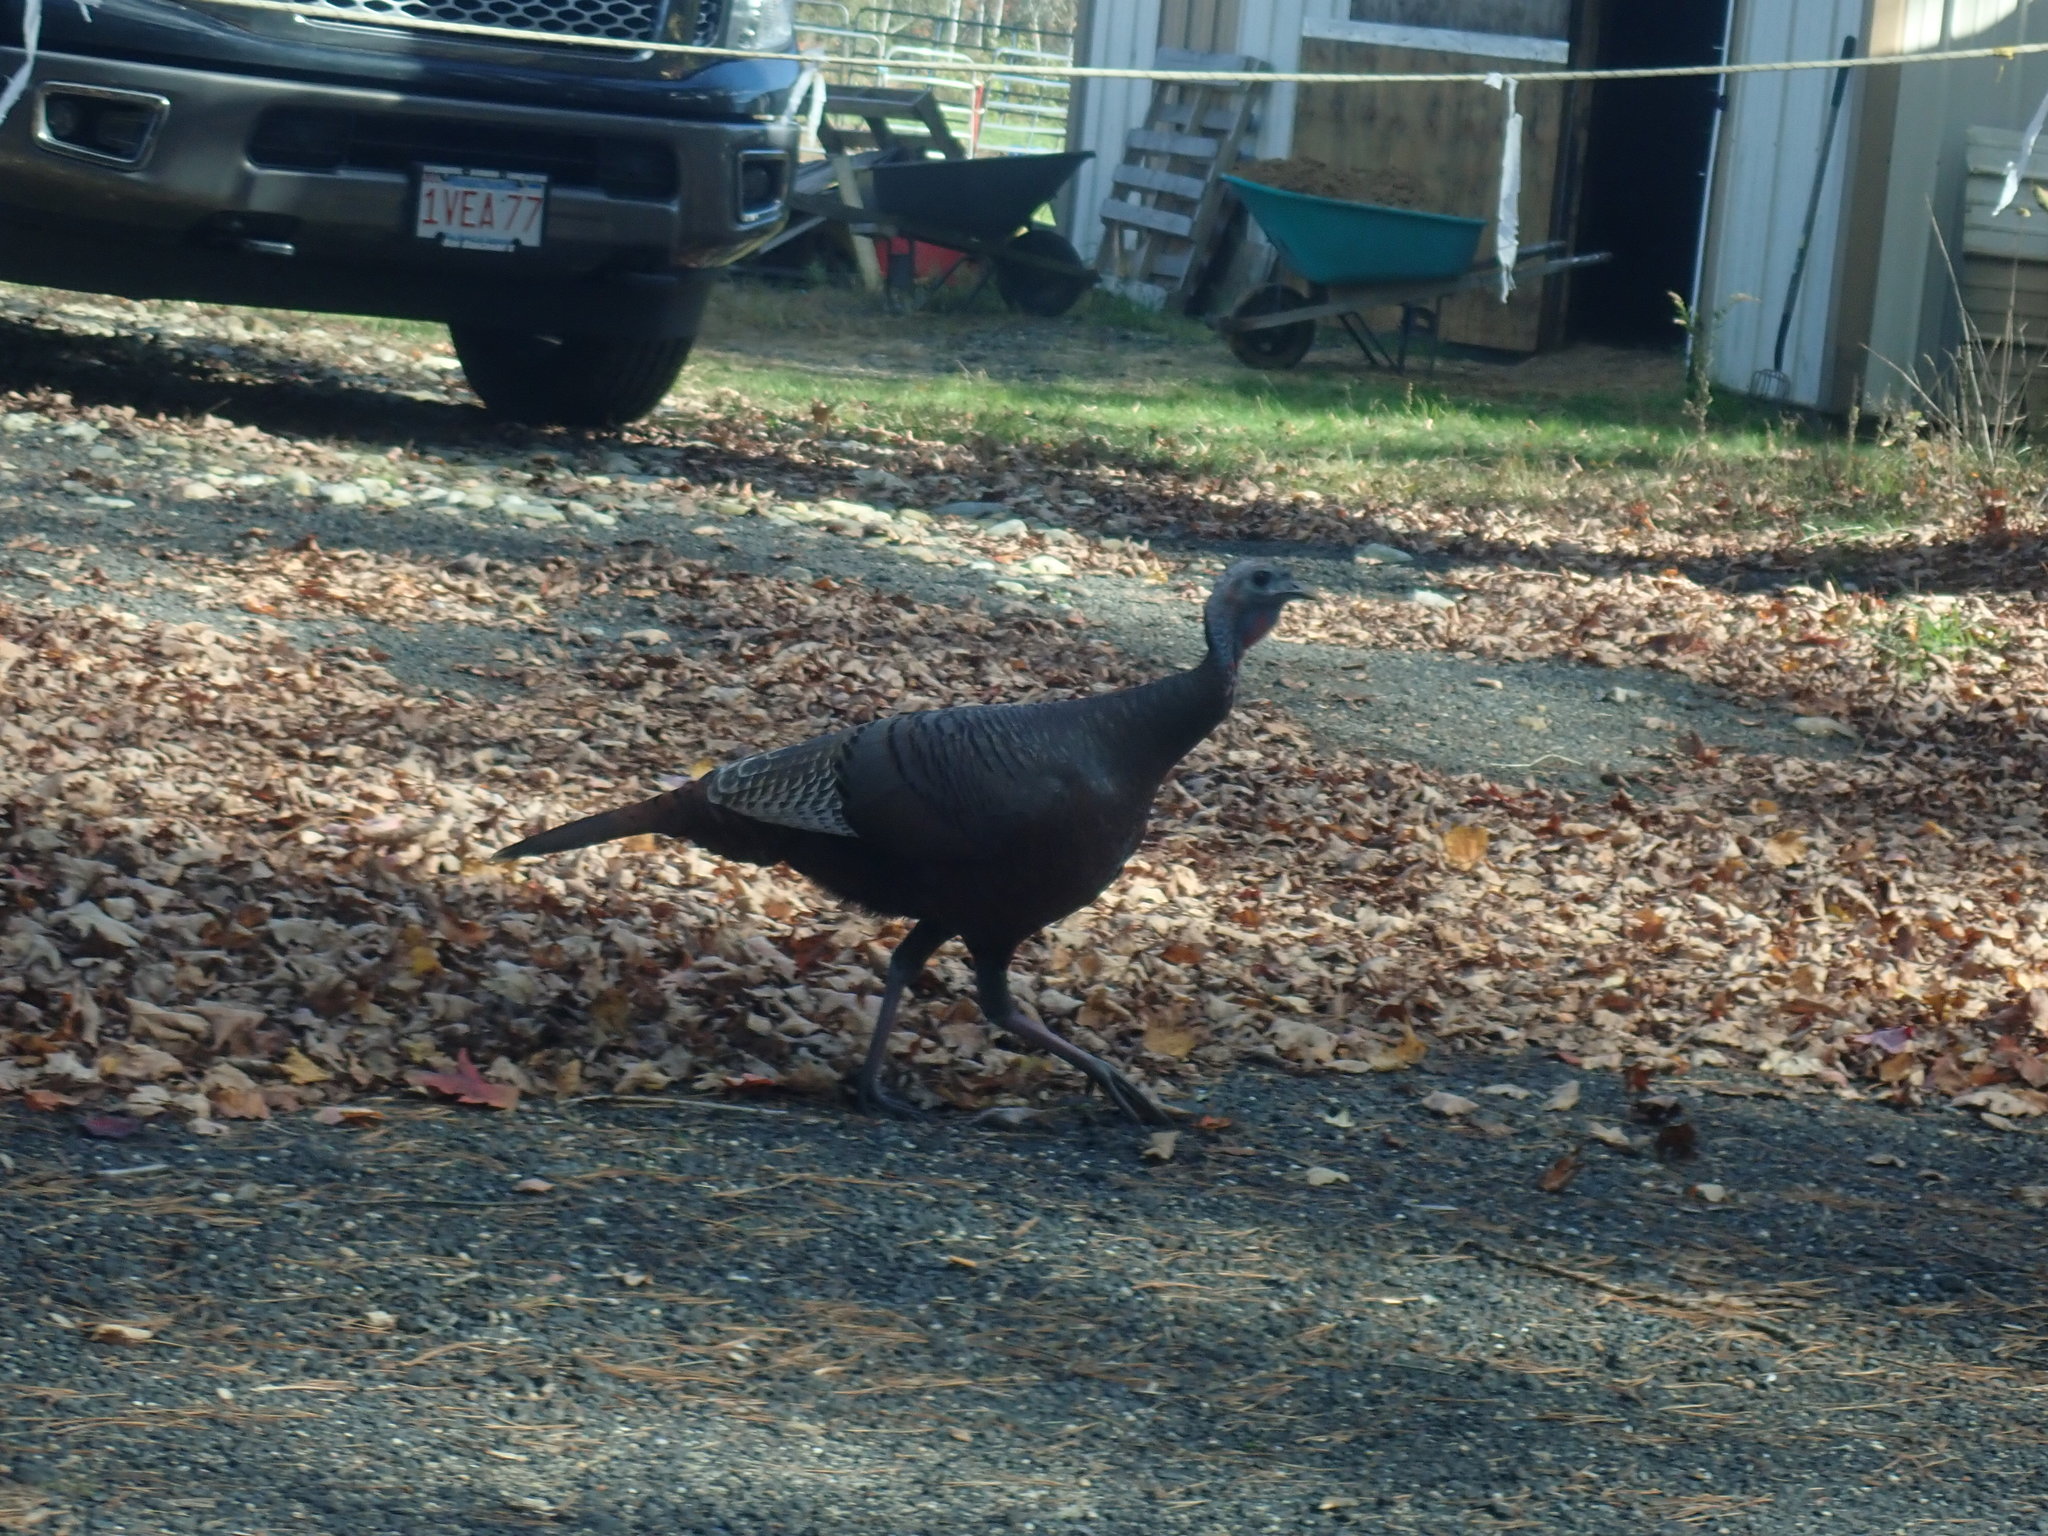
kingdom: Animalia
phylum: Chordata
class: Aves
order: Galliformes
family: Phasianidae
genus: Meleagris
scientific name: Meleagris gallopavo
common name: Wild turkey
